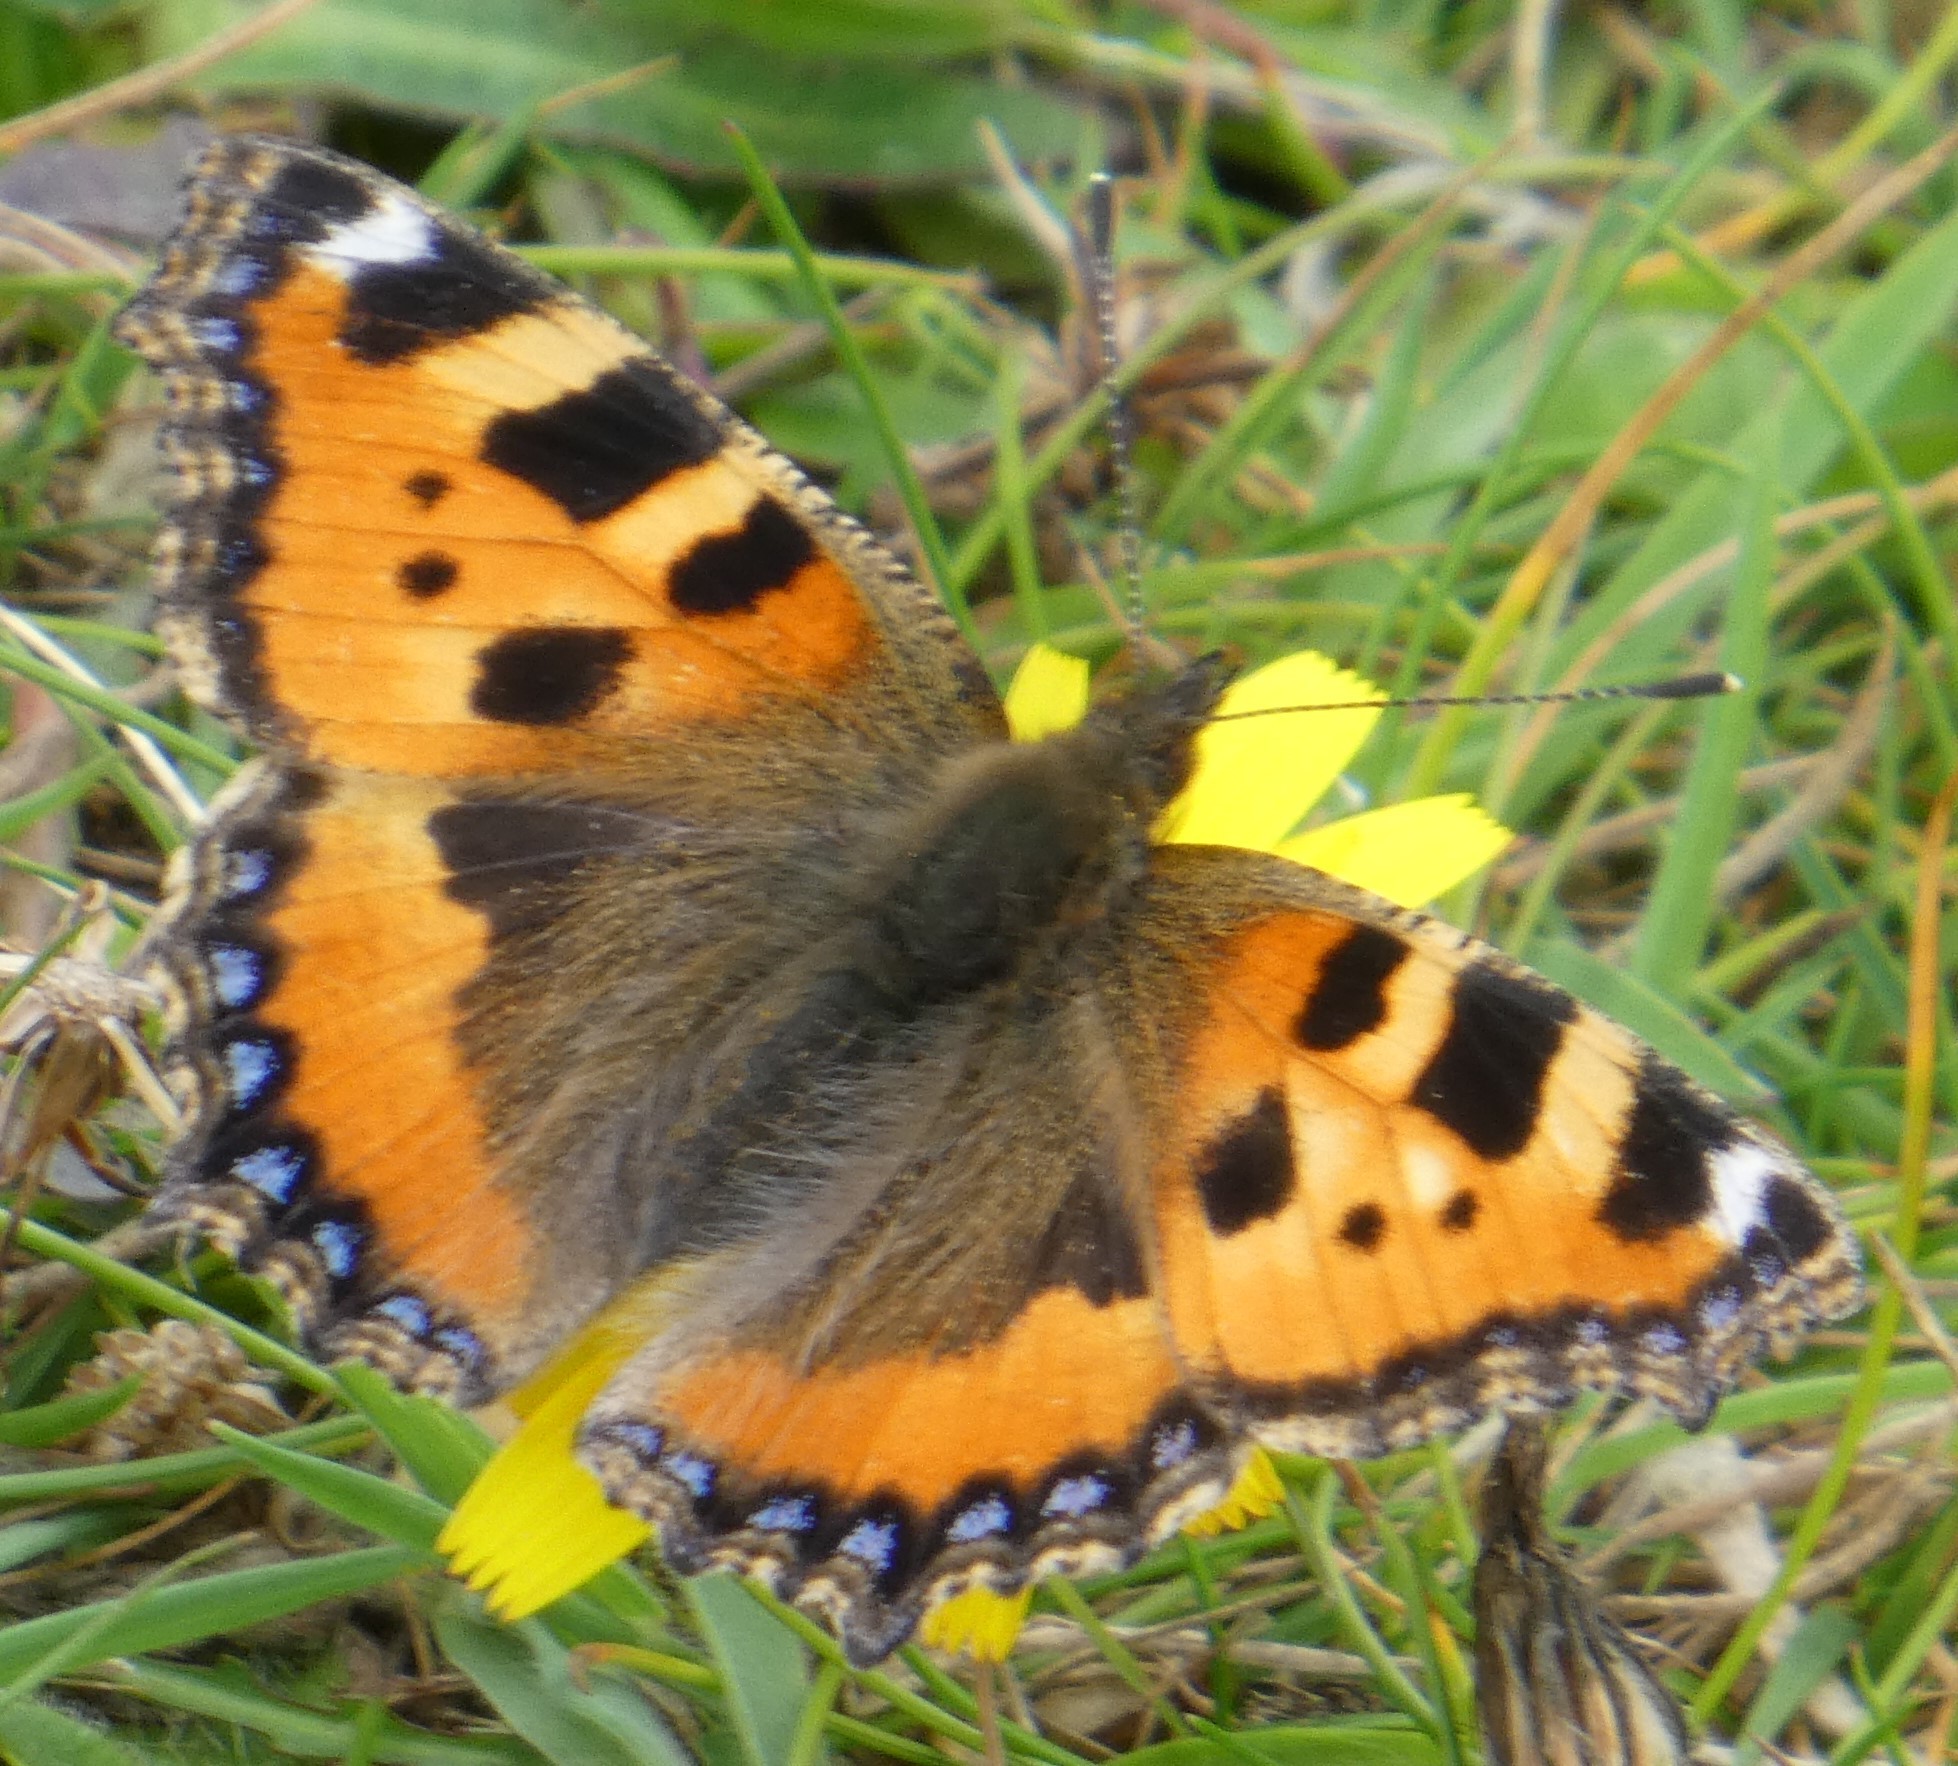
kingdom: Animalia
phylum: Arthropoda
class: Insecta
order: Lepidoptera
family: Nymphalidae
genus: Aglais
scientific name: Aglais urticae
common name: Small tortoiseshell
